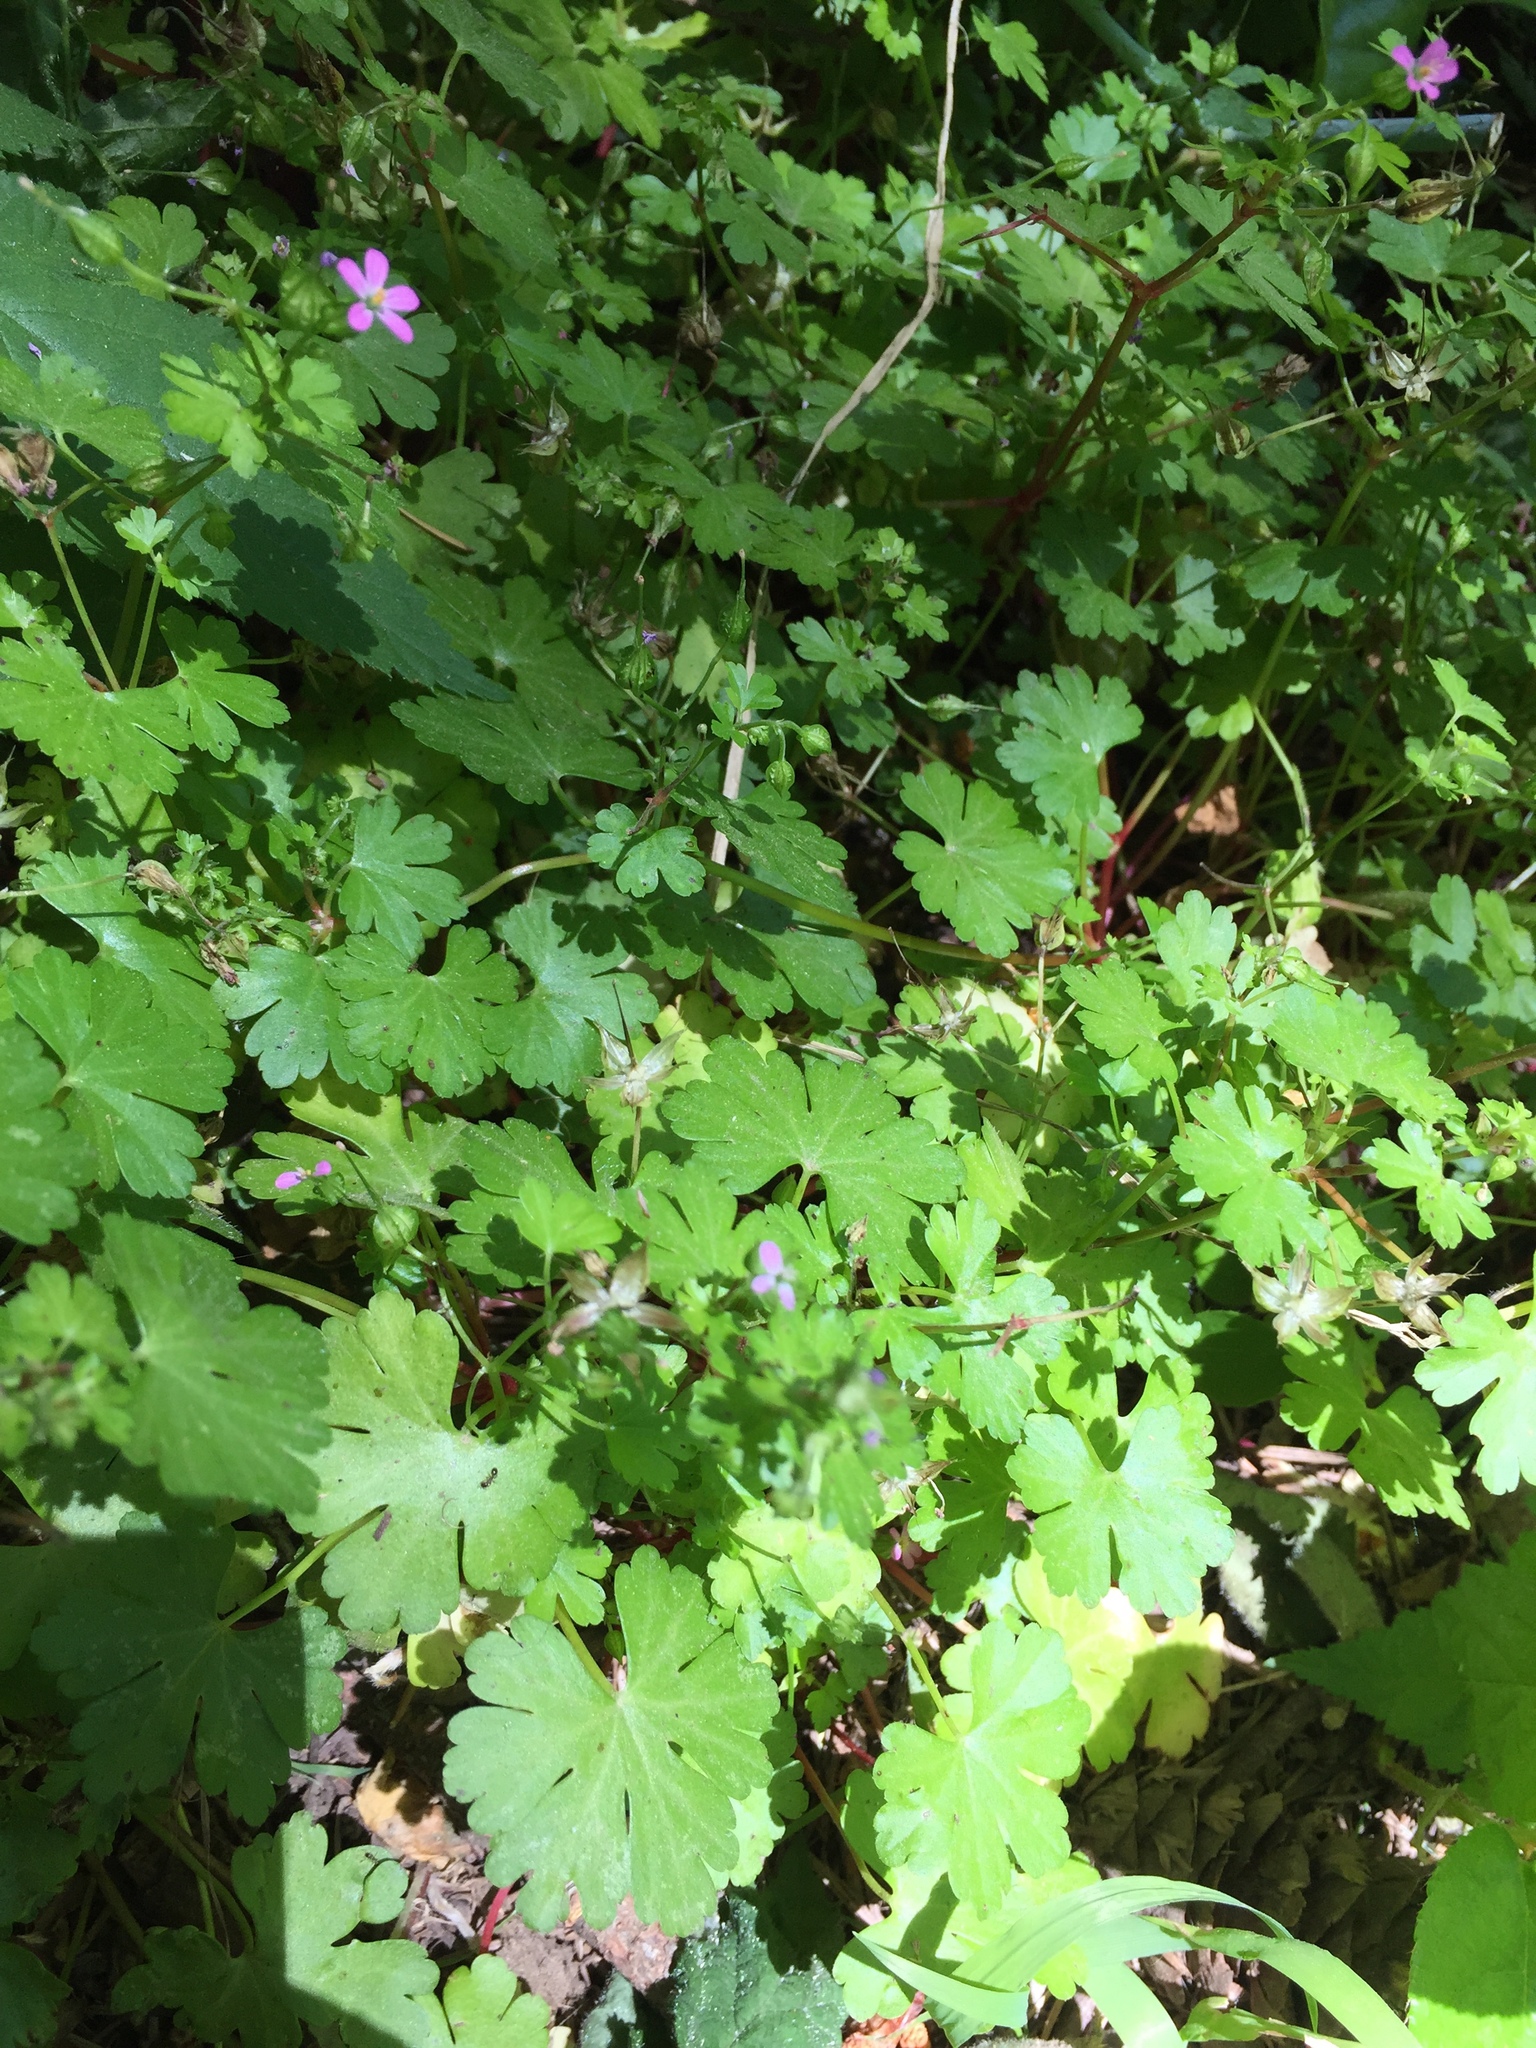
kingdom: Plantae
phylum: Tracheophyta
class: Magnoliopsida
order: Geraniales
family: Geraniaceae
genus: Geranium
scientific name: Geranium lucidum
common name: Shining crane's-bill
